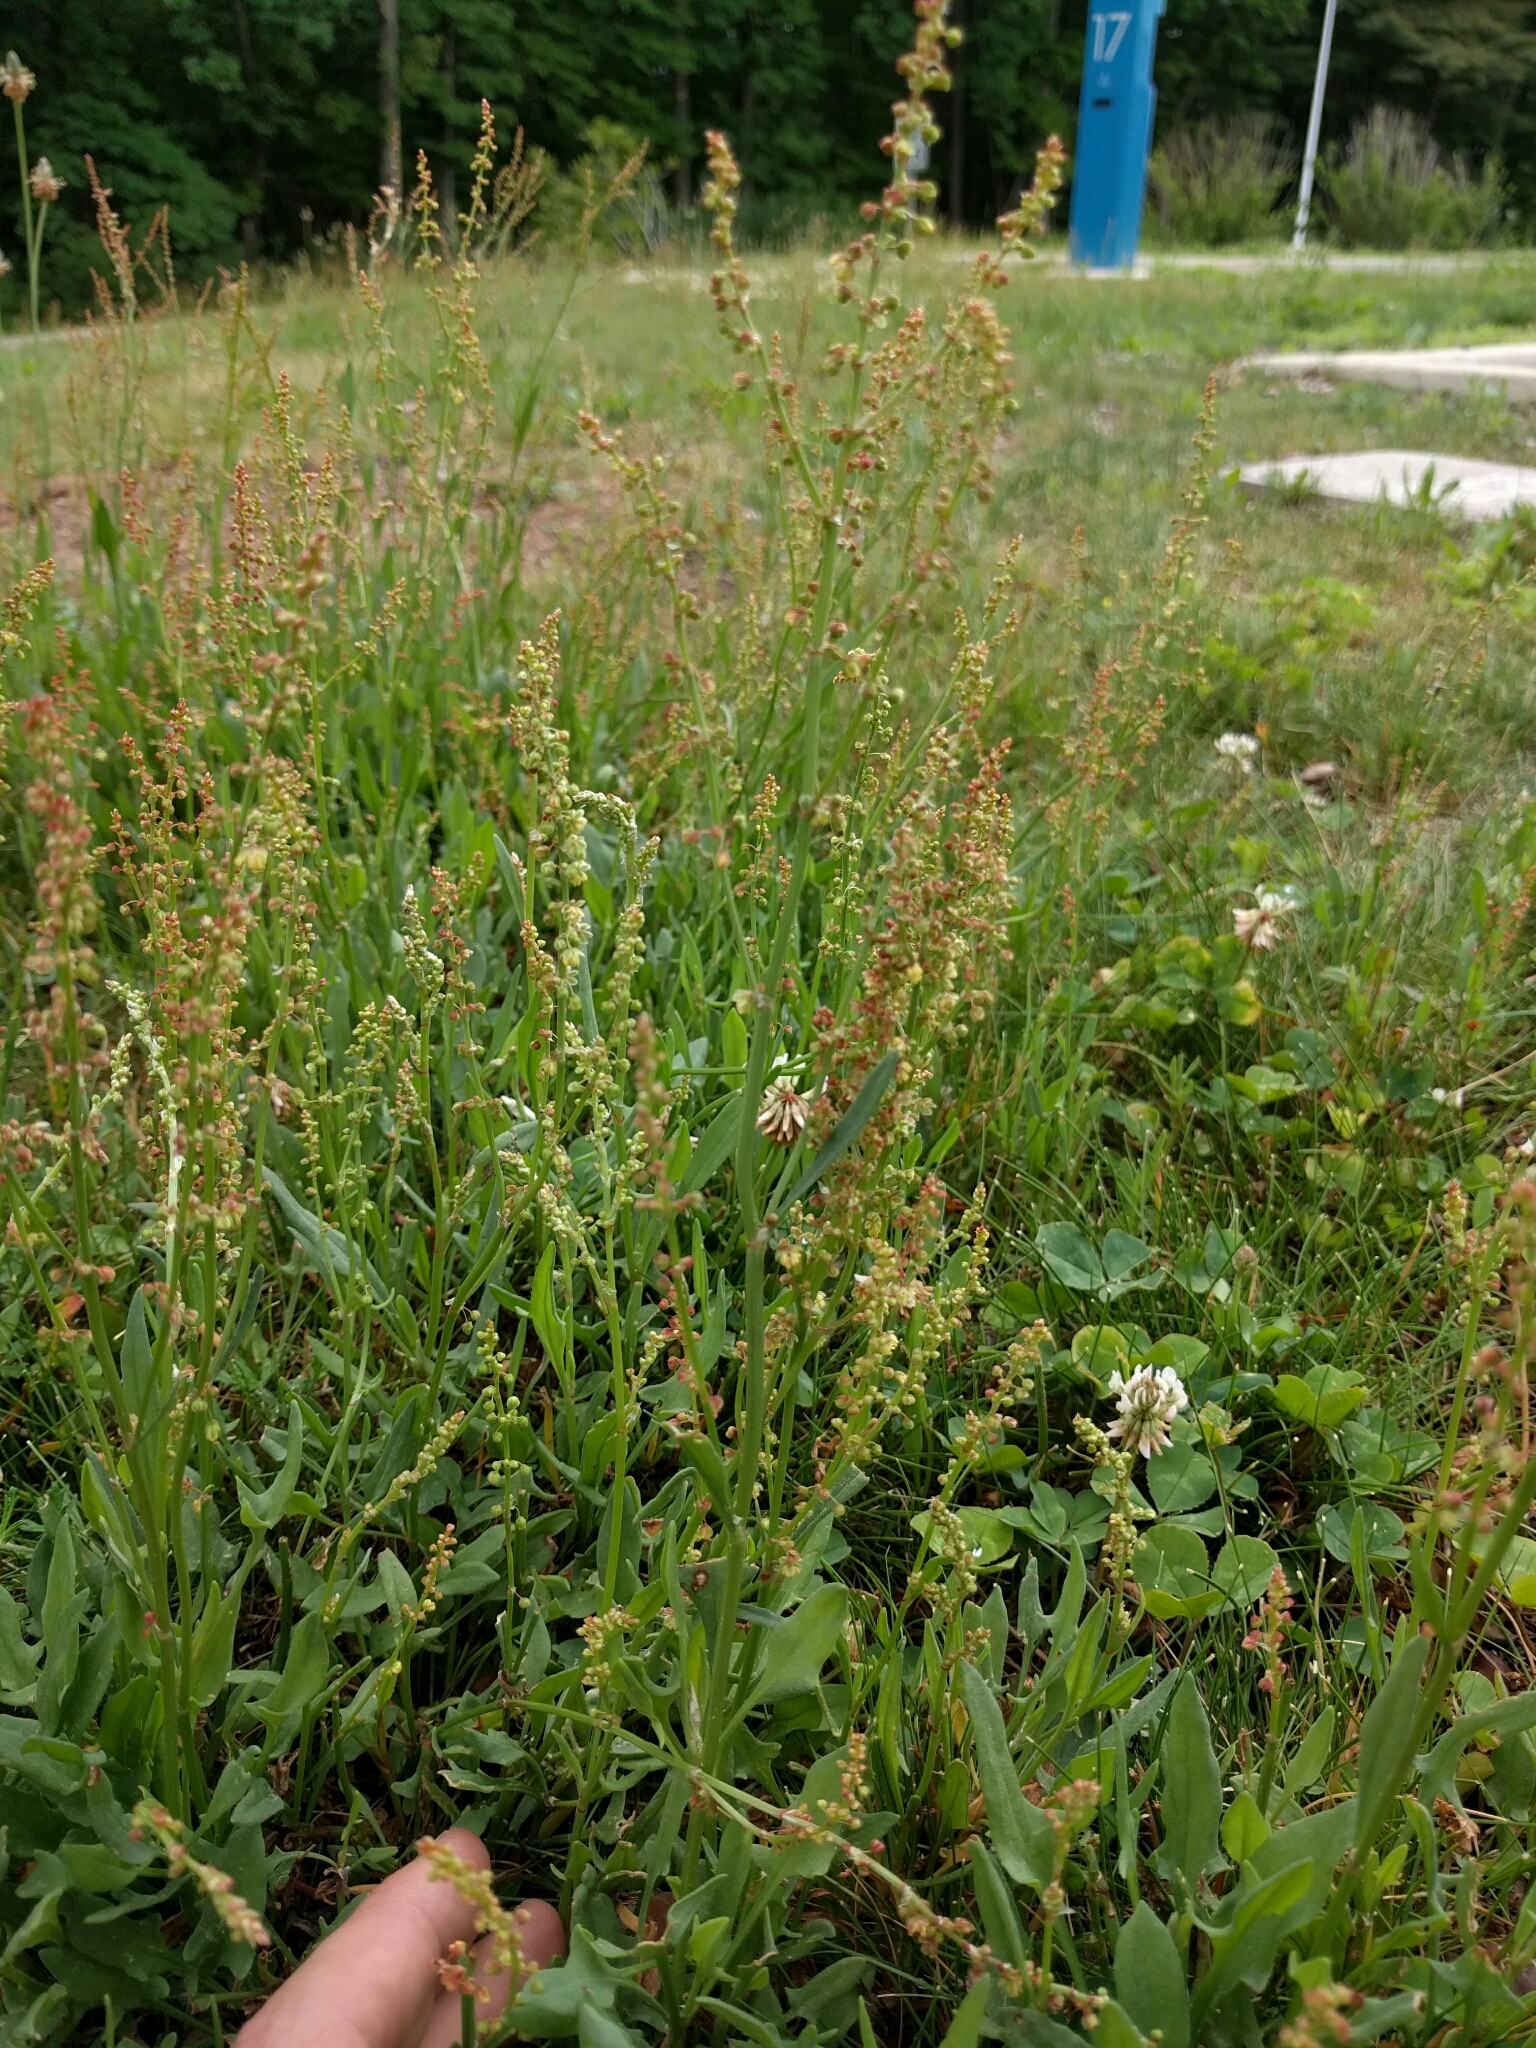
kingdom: Plantae
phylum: Tracheophyta
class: Magnoliopsida
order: Caryophyllales
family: Polygonaceae
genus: Rumex
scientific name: Rumex acetosella
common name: Common sheep sorrel
